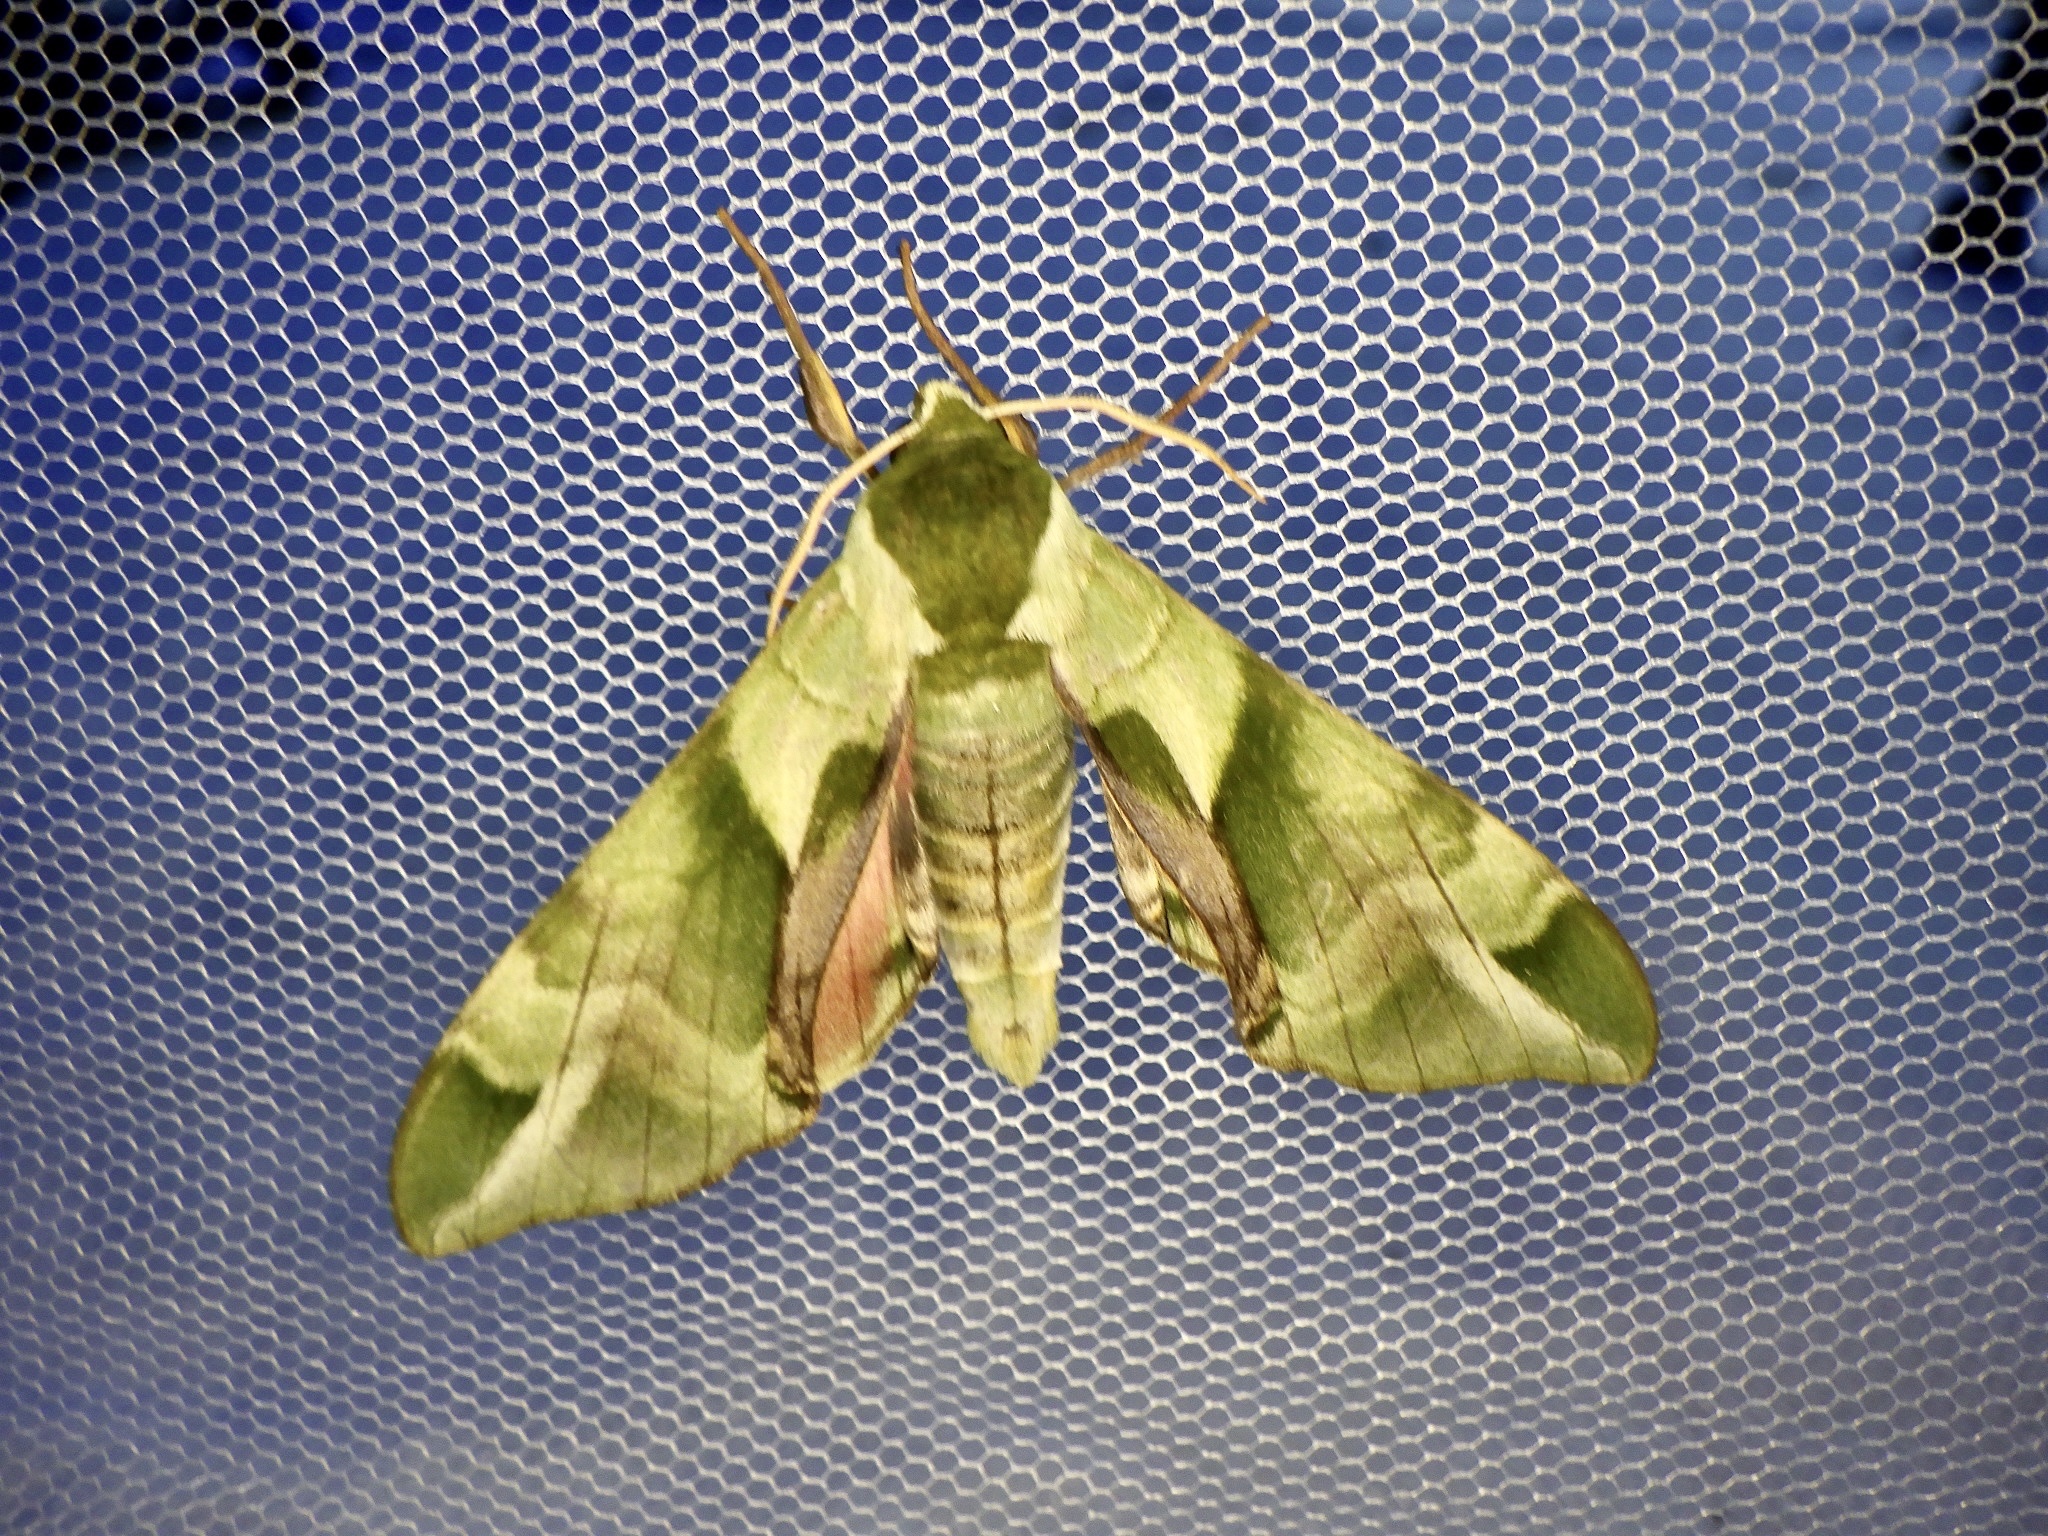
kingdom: Animalia
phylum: Arthropoda
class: Insecta
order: Lepidoptera
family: Sphingidae
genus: Callambulyx
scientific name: Callambulyx tatarinovii
